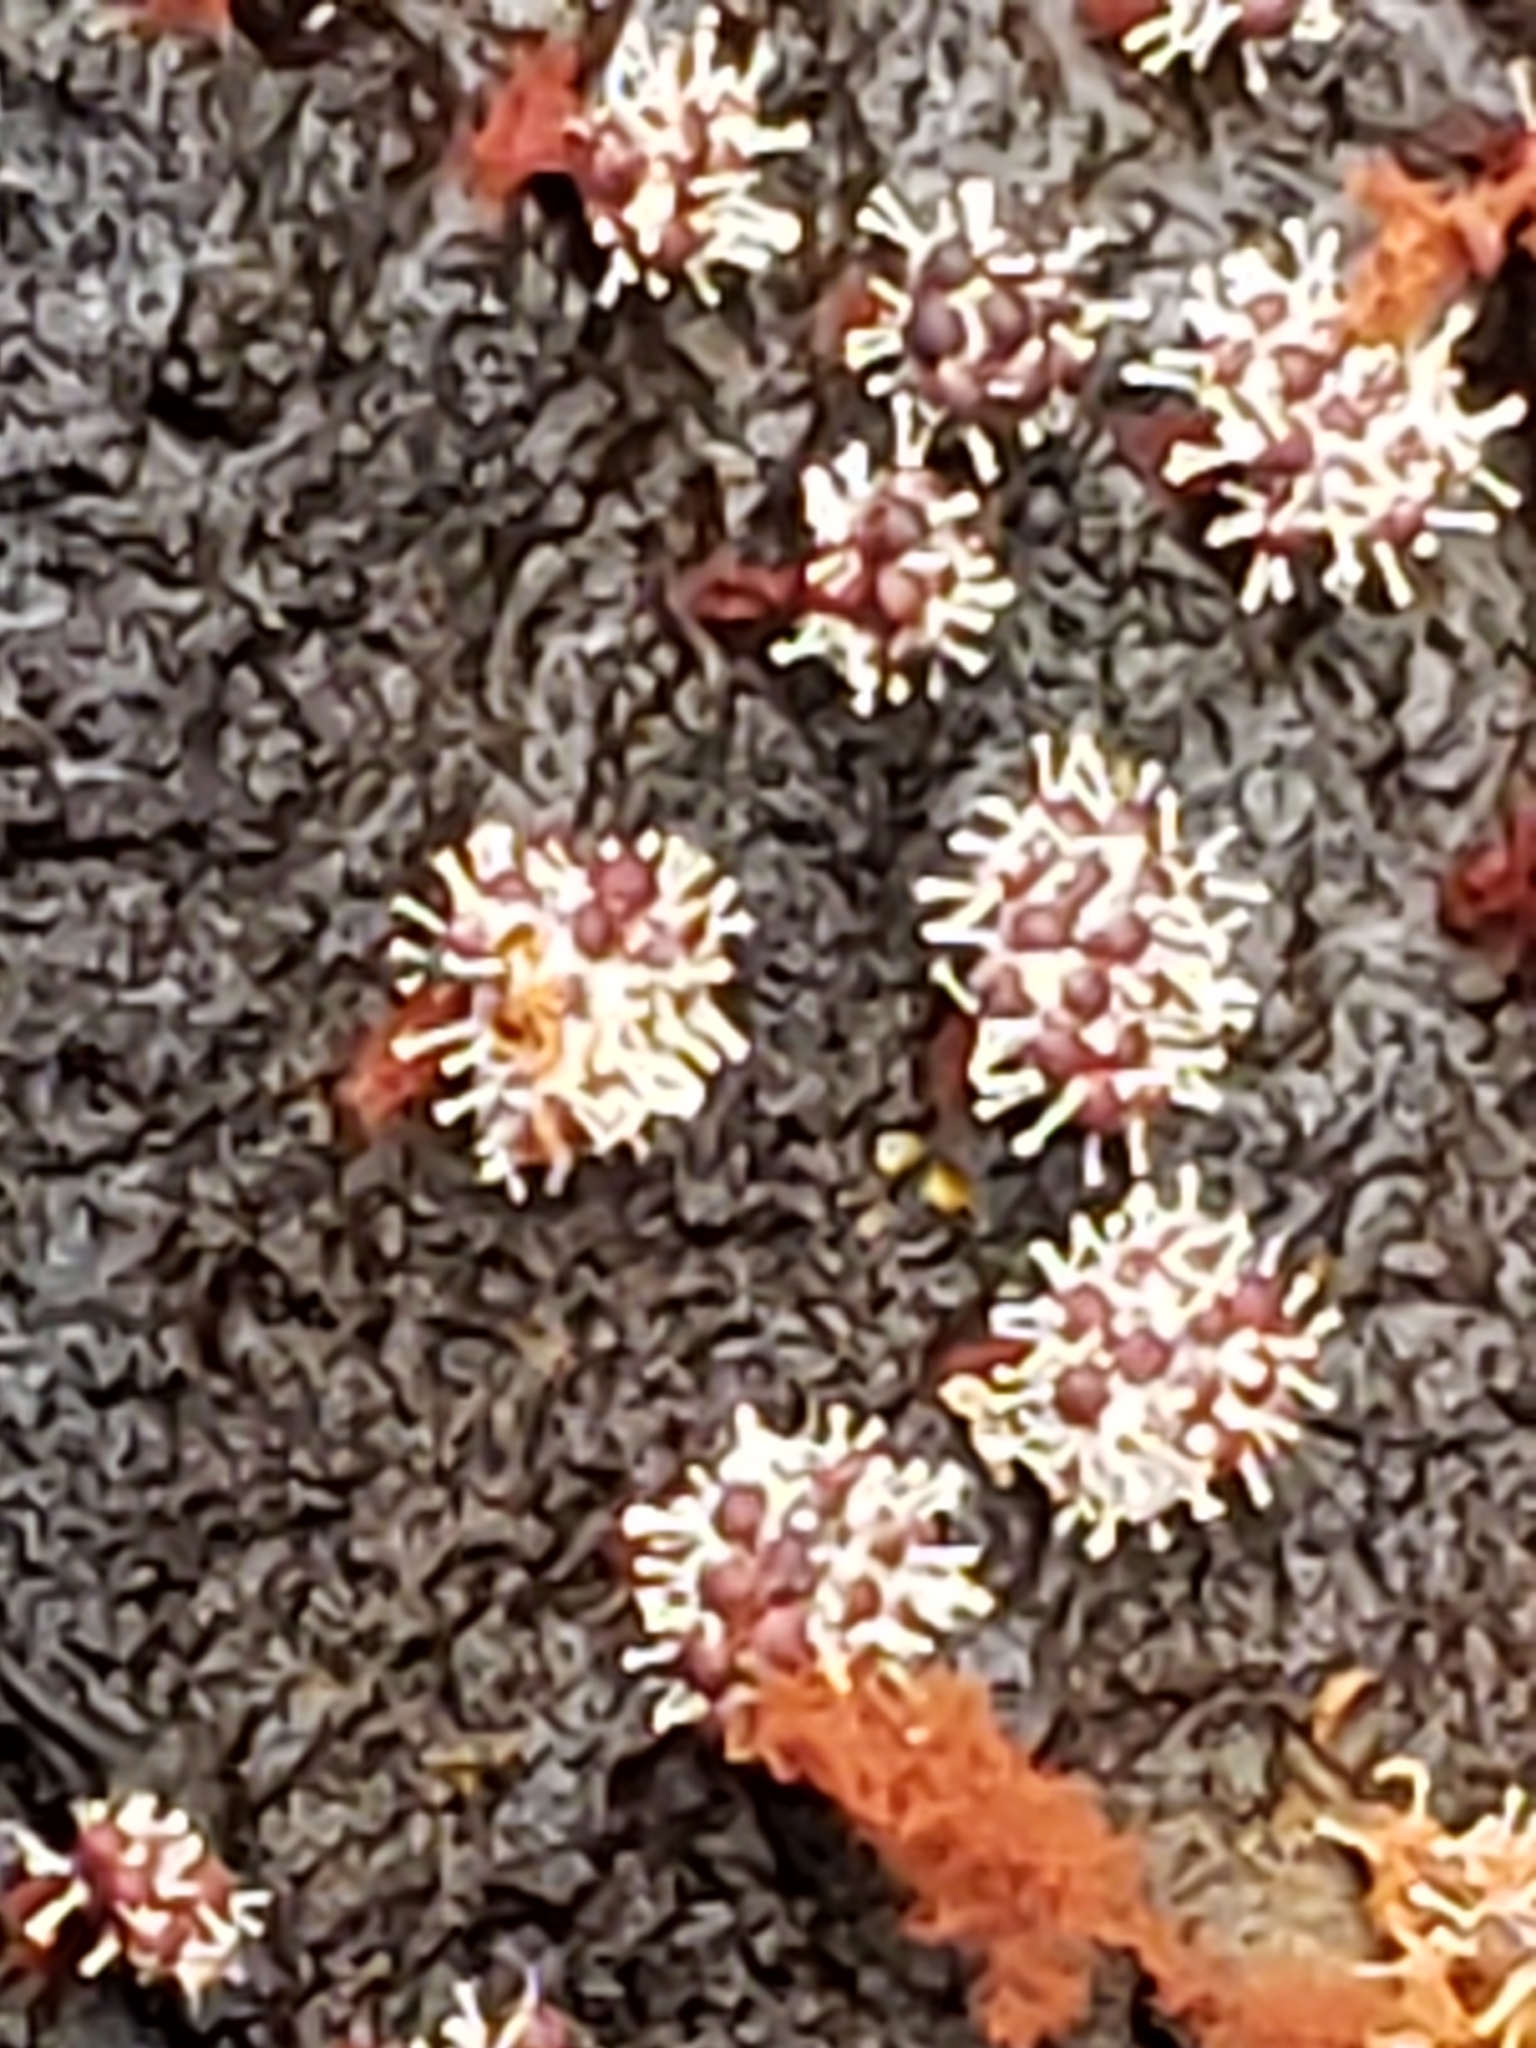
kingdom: Protozoa
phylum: Mycetozoa
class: Myxomycetes
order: Trichiales
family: Trichiaceae
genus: Metatrichia
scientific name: Metatrichia vesparia
